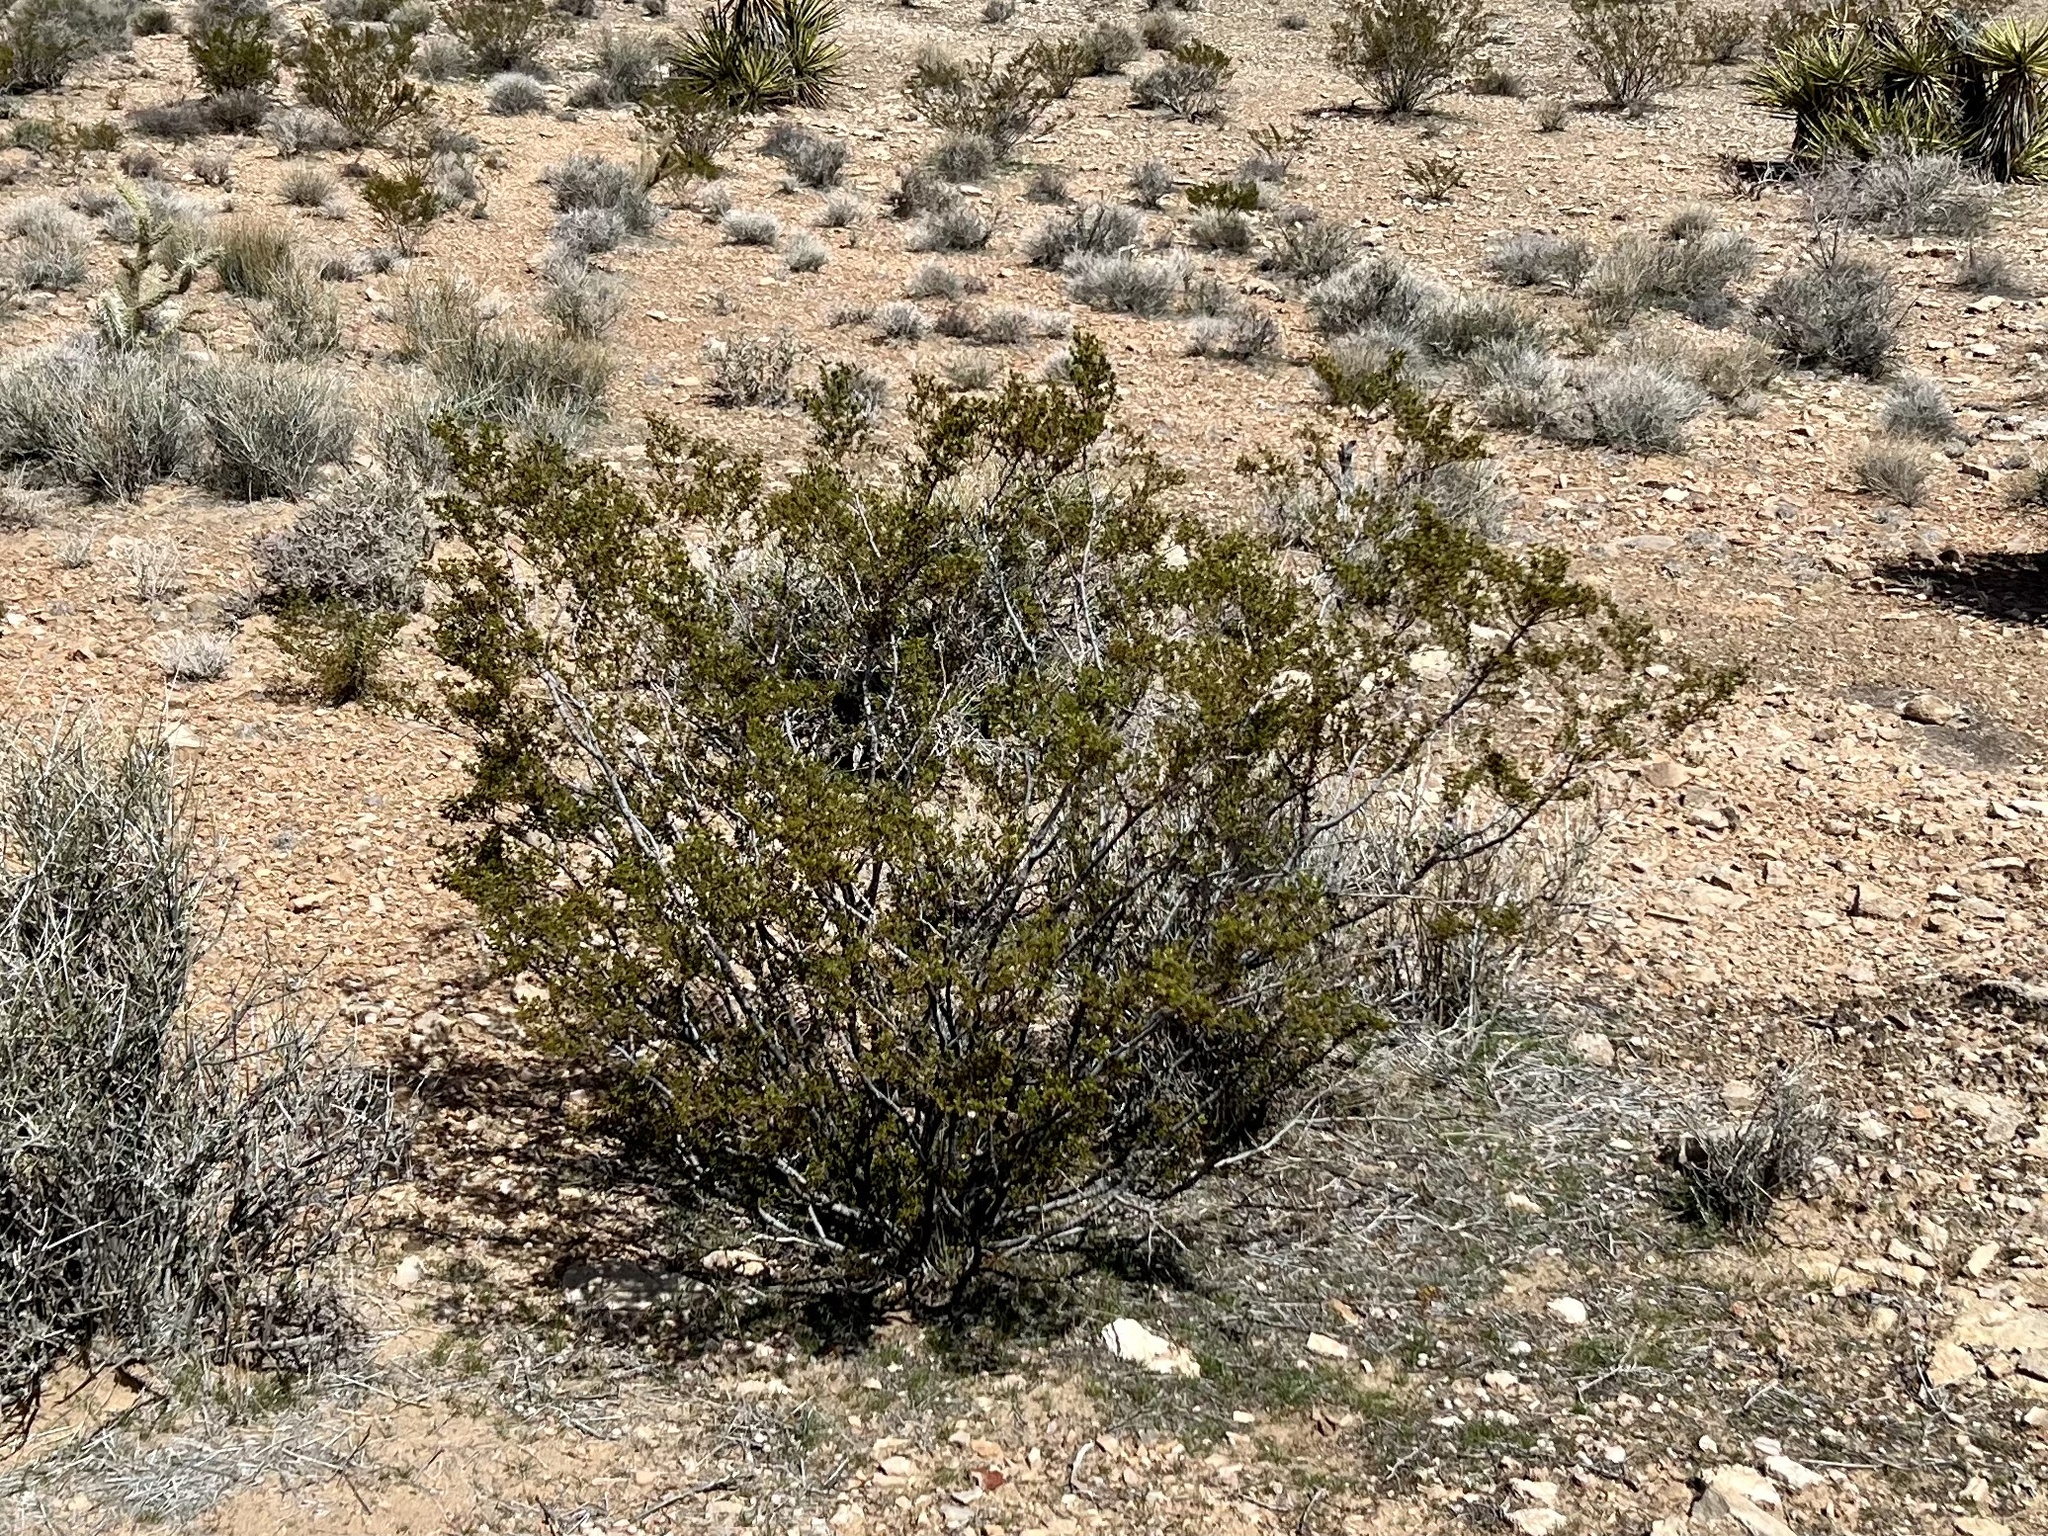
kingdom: Plantae
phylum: Tracheophyta
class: Magnoliopsida
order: Zygophyllales
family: Zygophyllaceae
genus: Larrea
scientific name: Larrea tridentata
